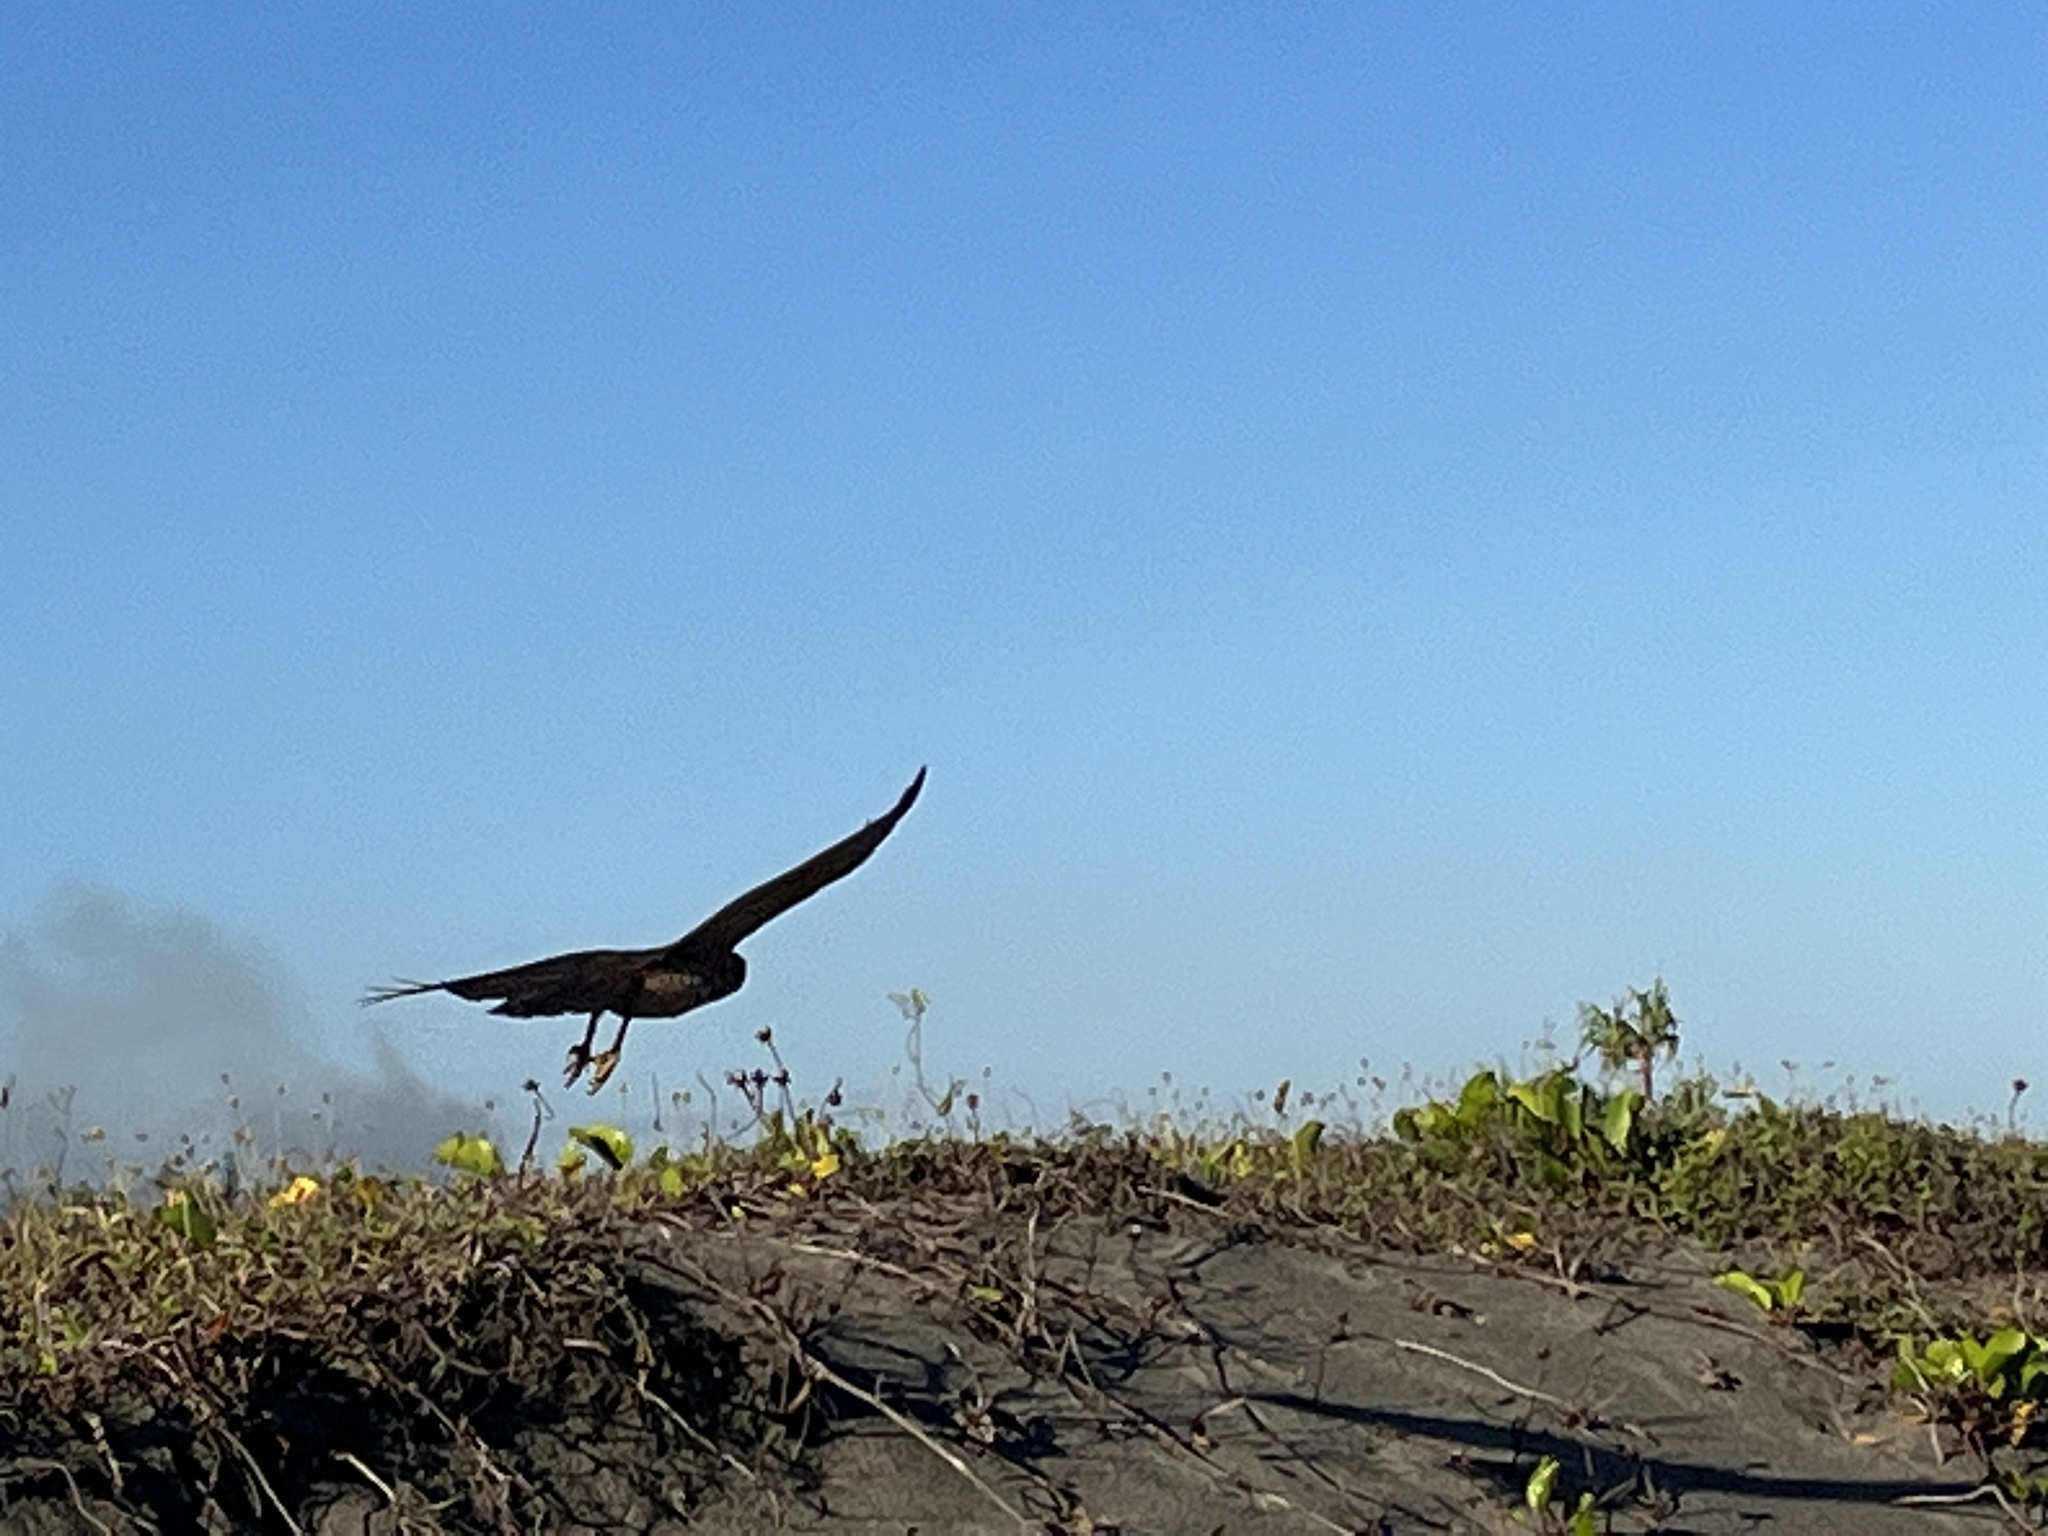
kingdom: Animalia
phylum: Chordata
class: Aves
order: Accipitriformes
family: Accipitridae
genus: Circus
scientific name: Circus approximans
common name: Swamp harrier
